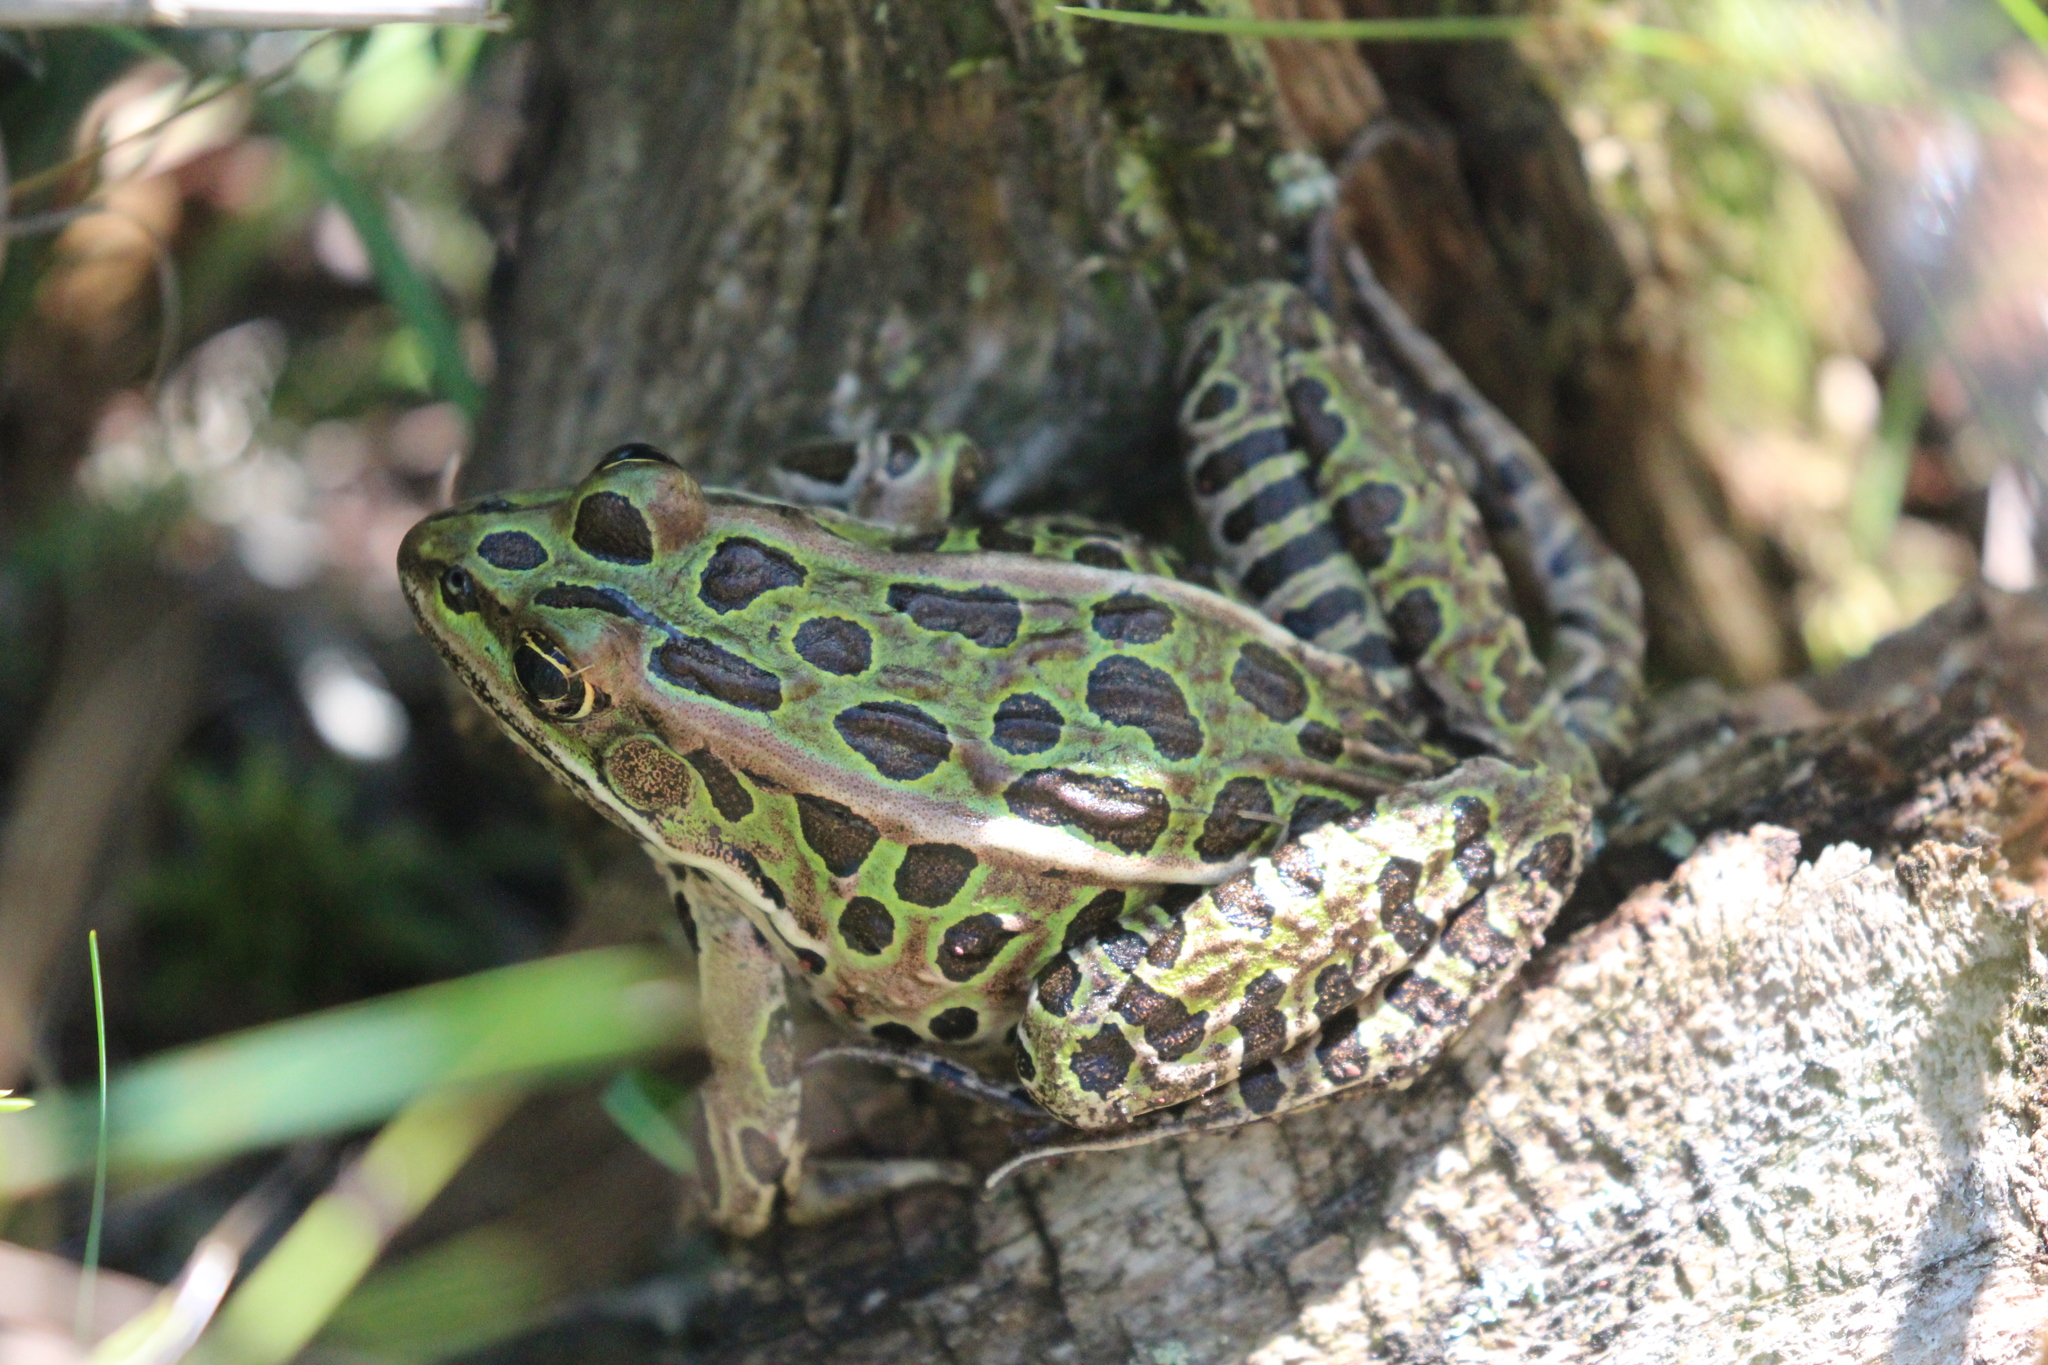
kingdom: Animalia
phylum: Chordata
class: Amphibia
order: Anura
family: Ranidae
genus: Lithobates
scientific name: Lithobates pipiens
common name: Northern leopard frog
